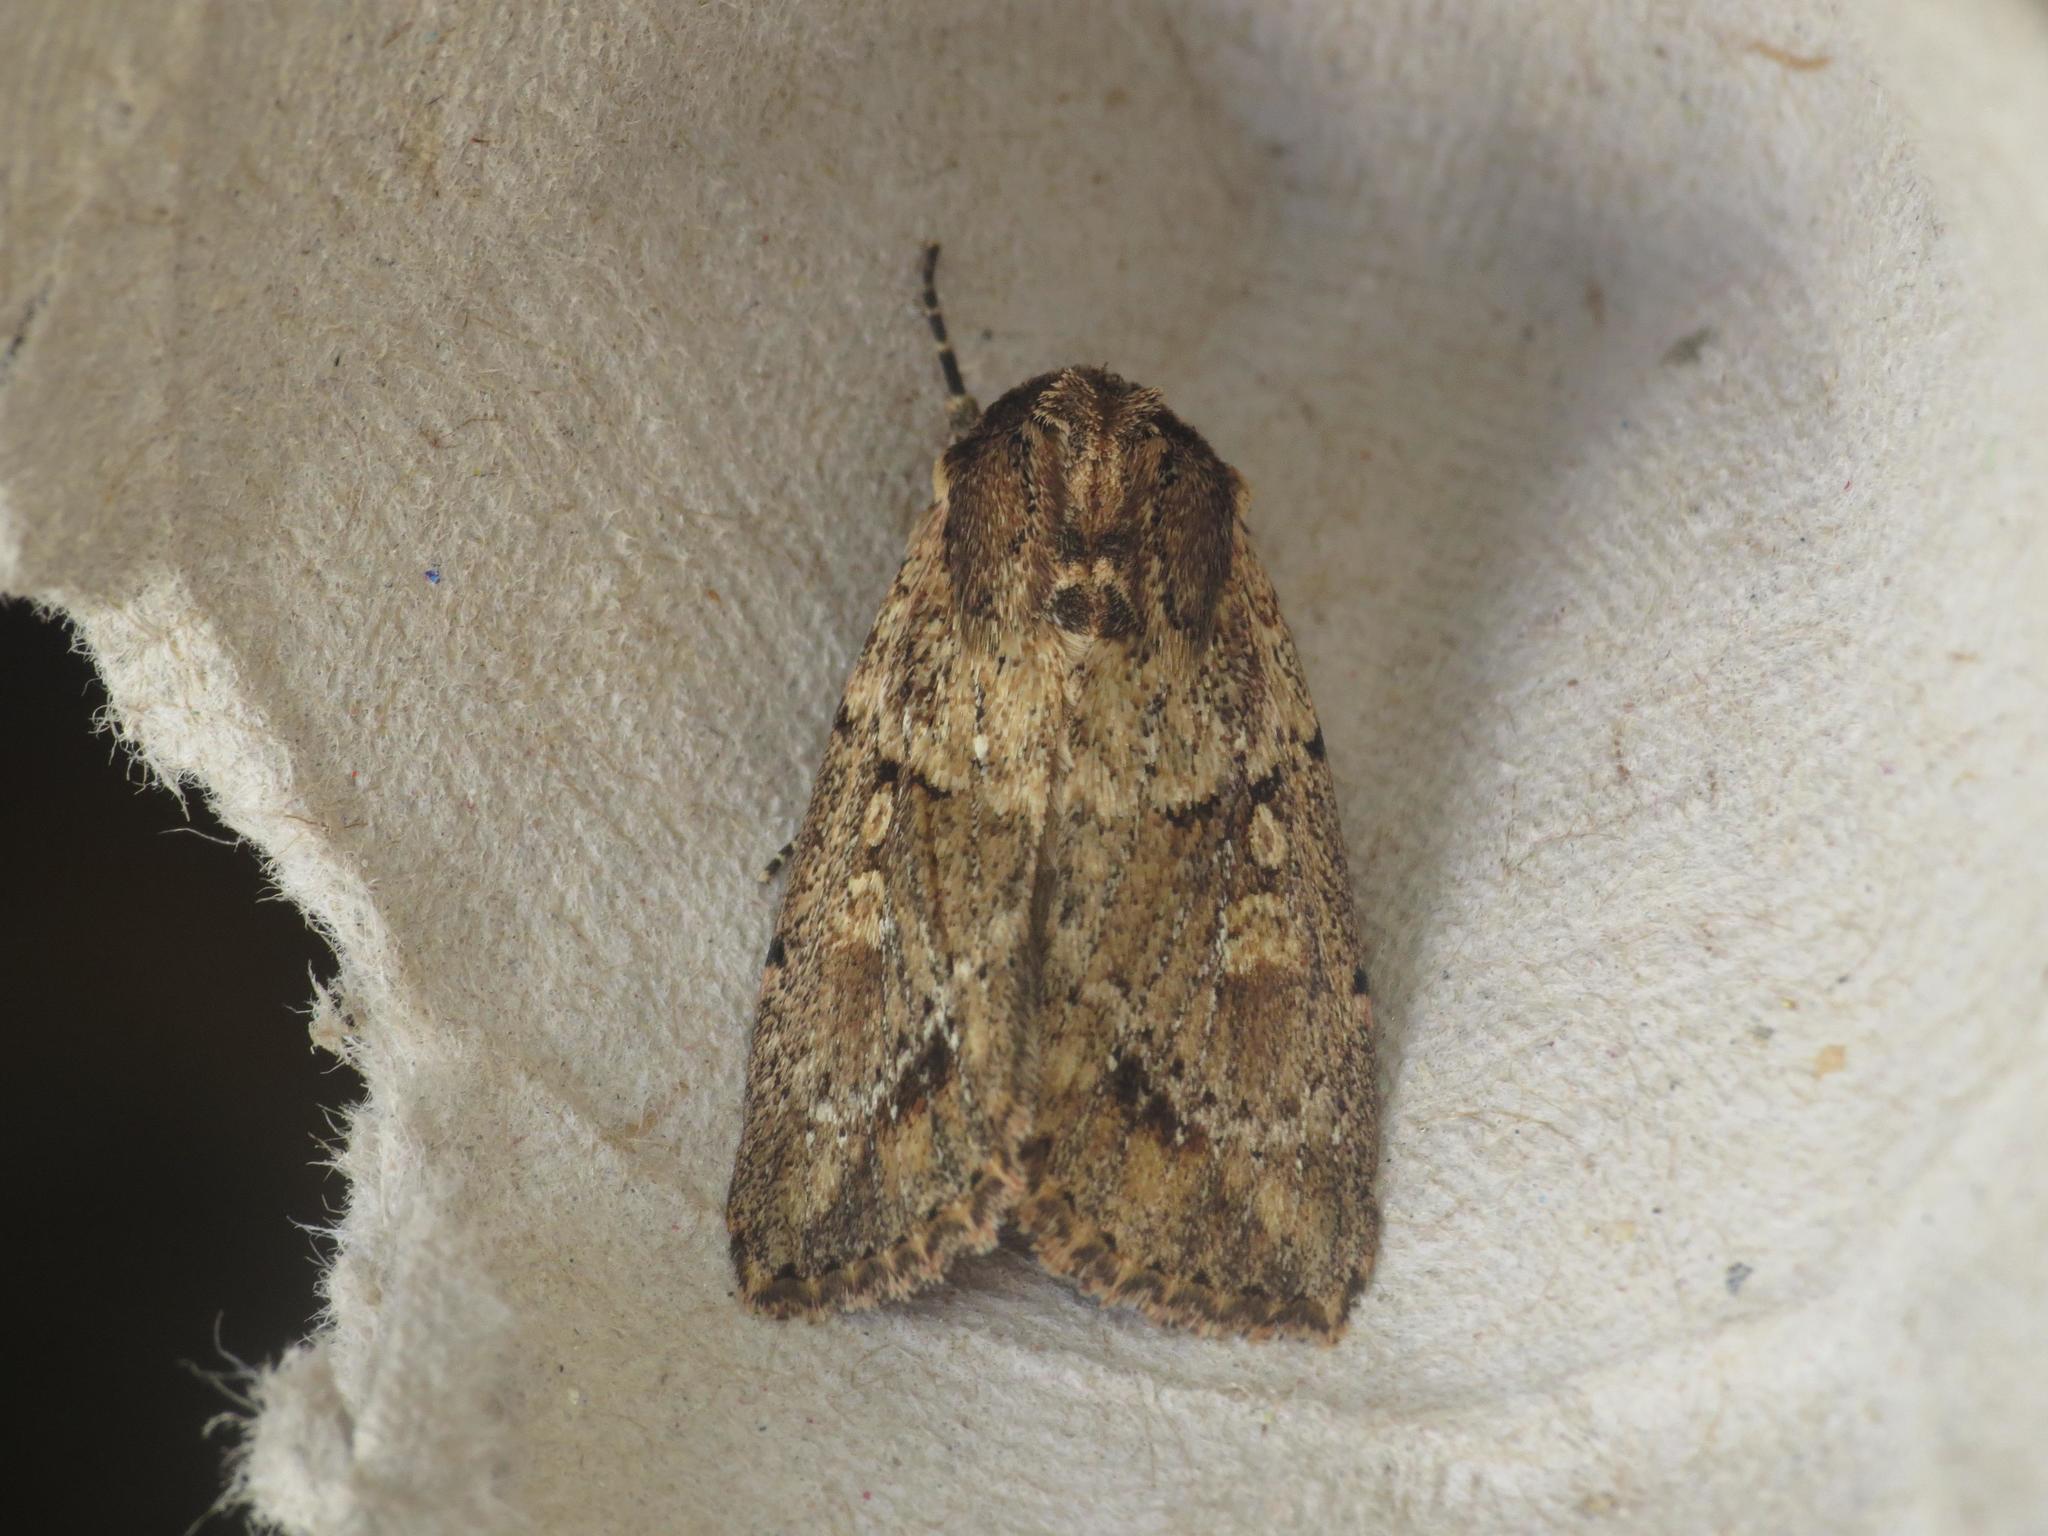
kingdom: Animalia
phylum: Arthropoda
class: Insecta
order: Lepidoptera
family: Noctuidae
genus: Mythimna
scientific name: Mythimna reversa
